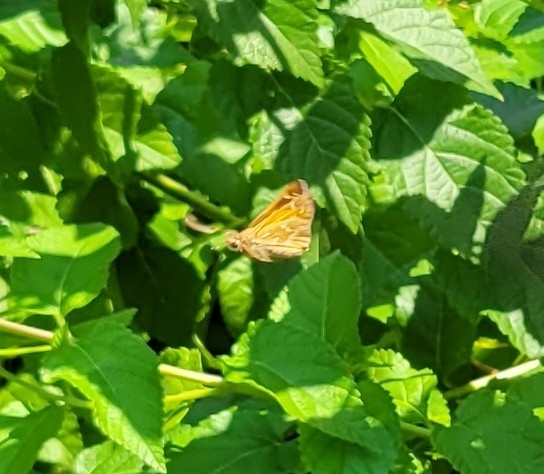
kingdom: Animalia
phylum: Arthropoda
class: Insecta
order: Lepidoptera
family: Hesperiidae
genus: Atalopedes
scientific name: Atalopedes
